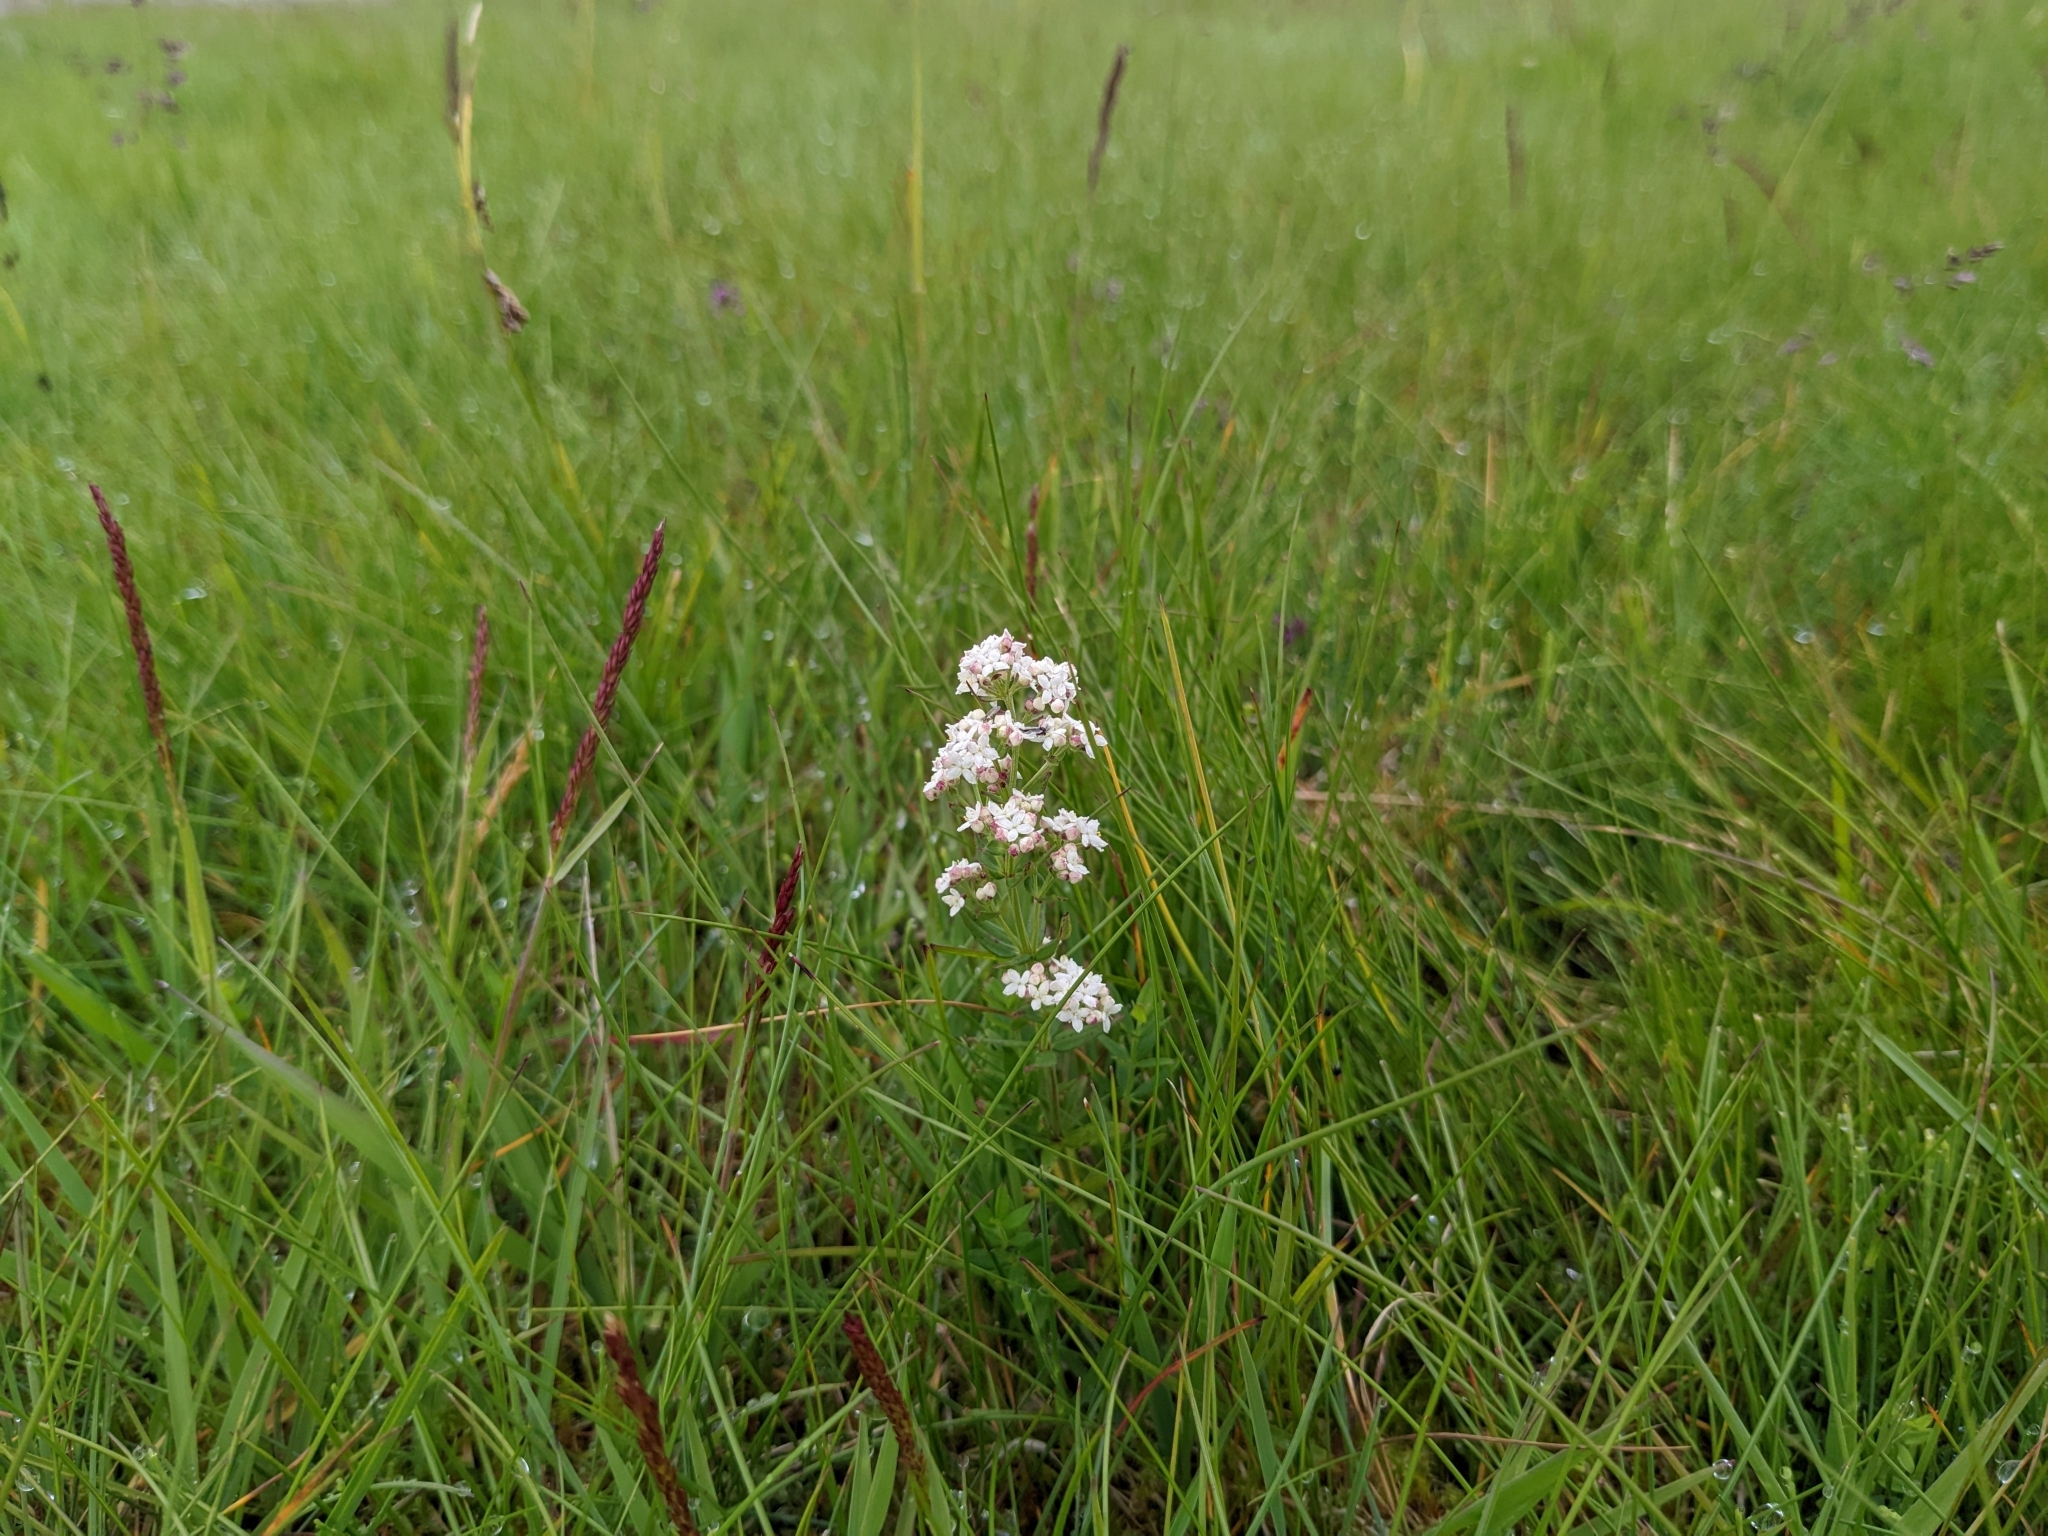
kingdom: Plantae
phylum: Tracheophyta
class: Magnoliopsida
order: Gentianales
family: Rubiaceae
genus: Galium
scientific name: Galium boreale
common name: Northern bedstraw
